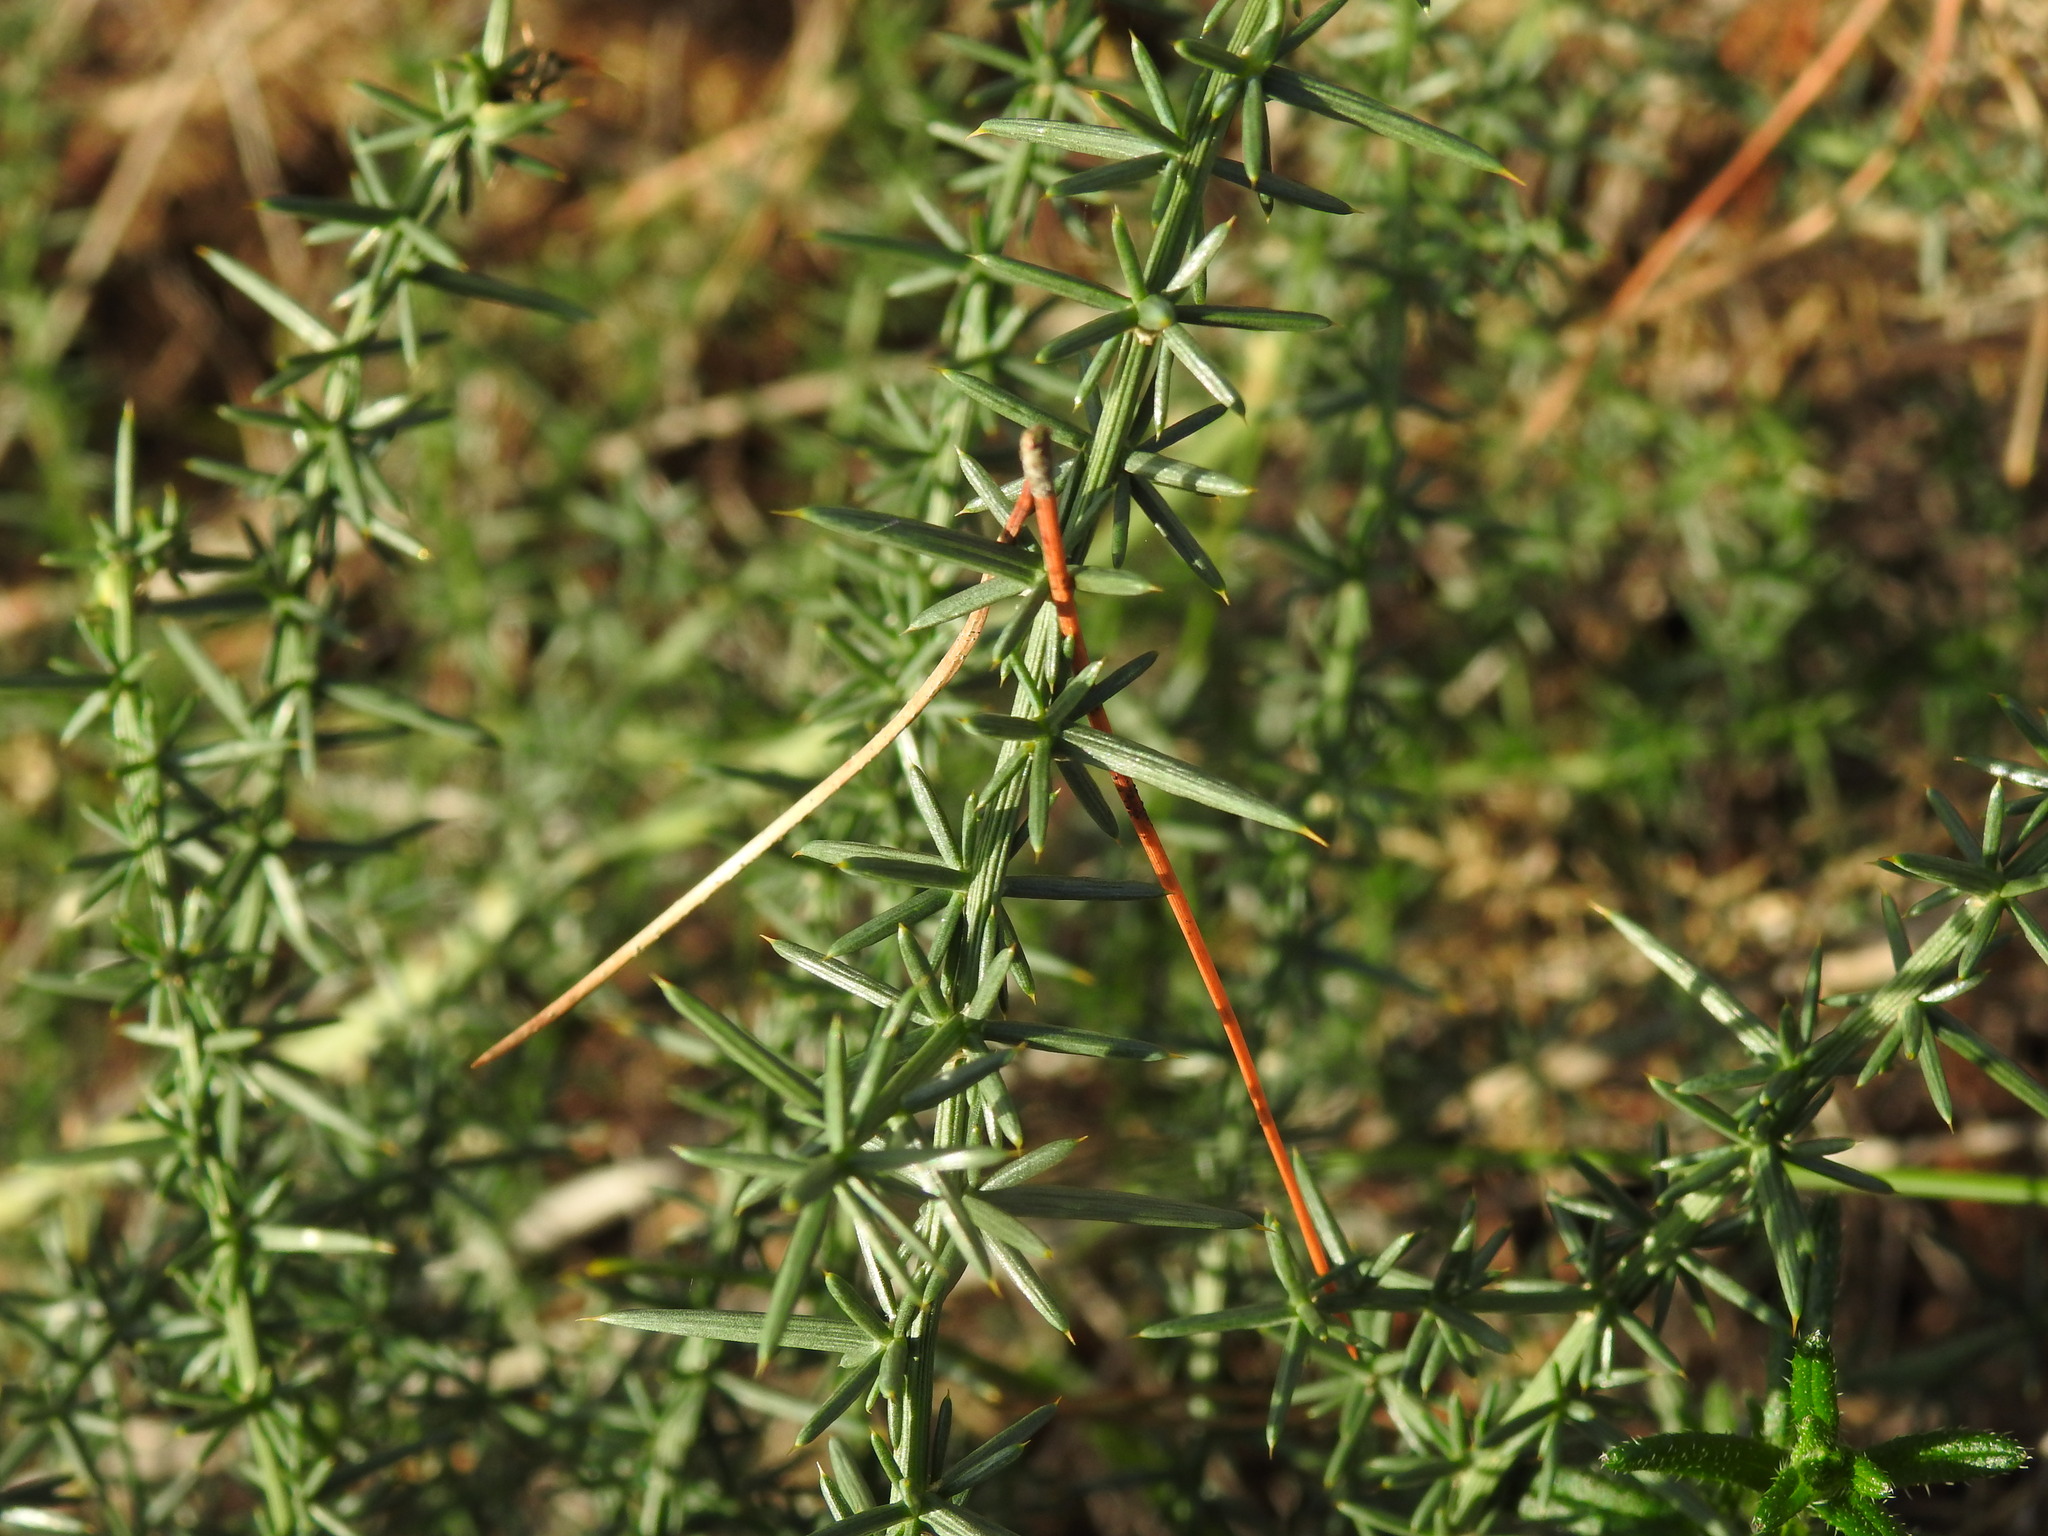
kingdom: Plantae
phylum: Tracheophyta
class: Liliopsida
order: Asparagales
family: Asparagaceae
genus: Asparagus
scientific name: Asparagus aphyllus
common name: Mediterranean asparagus
